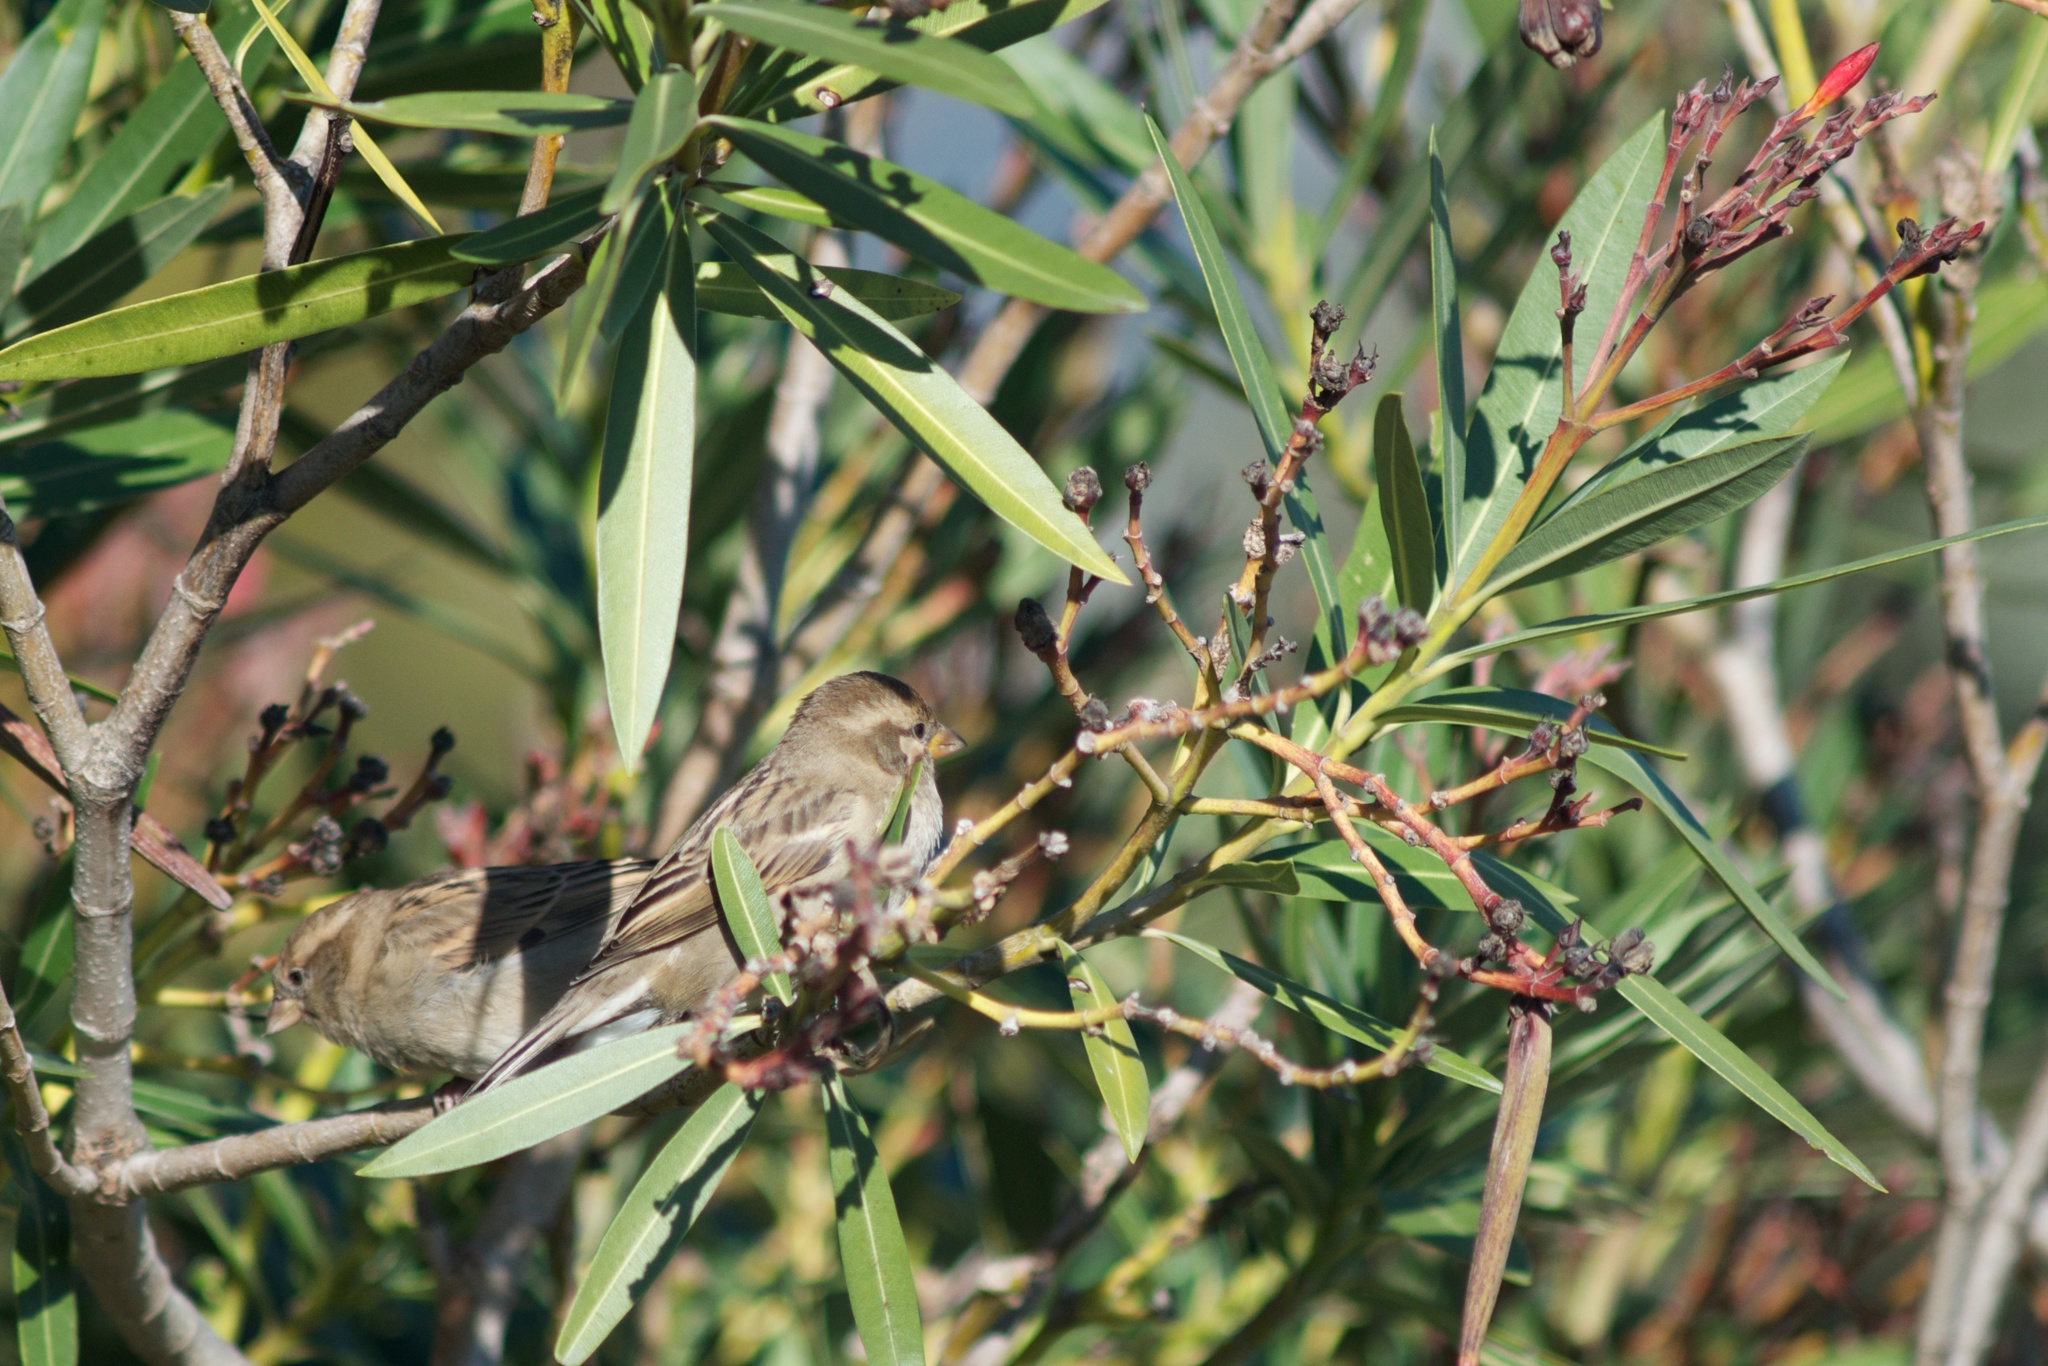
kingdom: Animalia
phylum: Chordata
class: Aves
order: Passeriformes
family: Passeridae
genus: Passer
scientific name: Passer domesticus
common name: House sparrow
